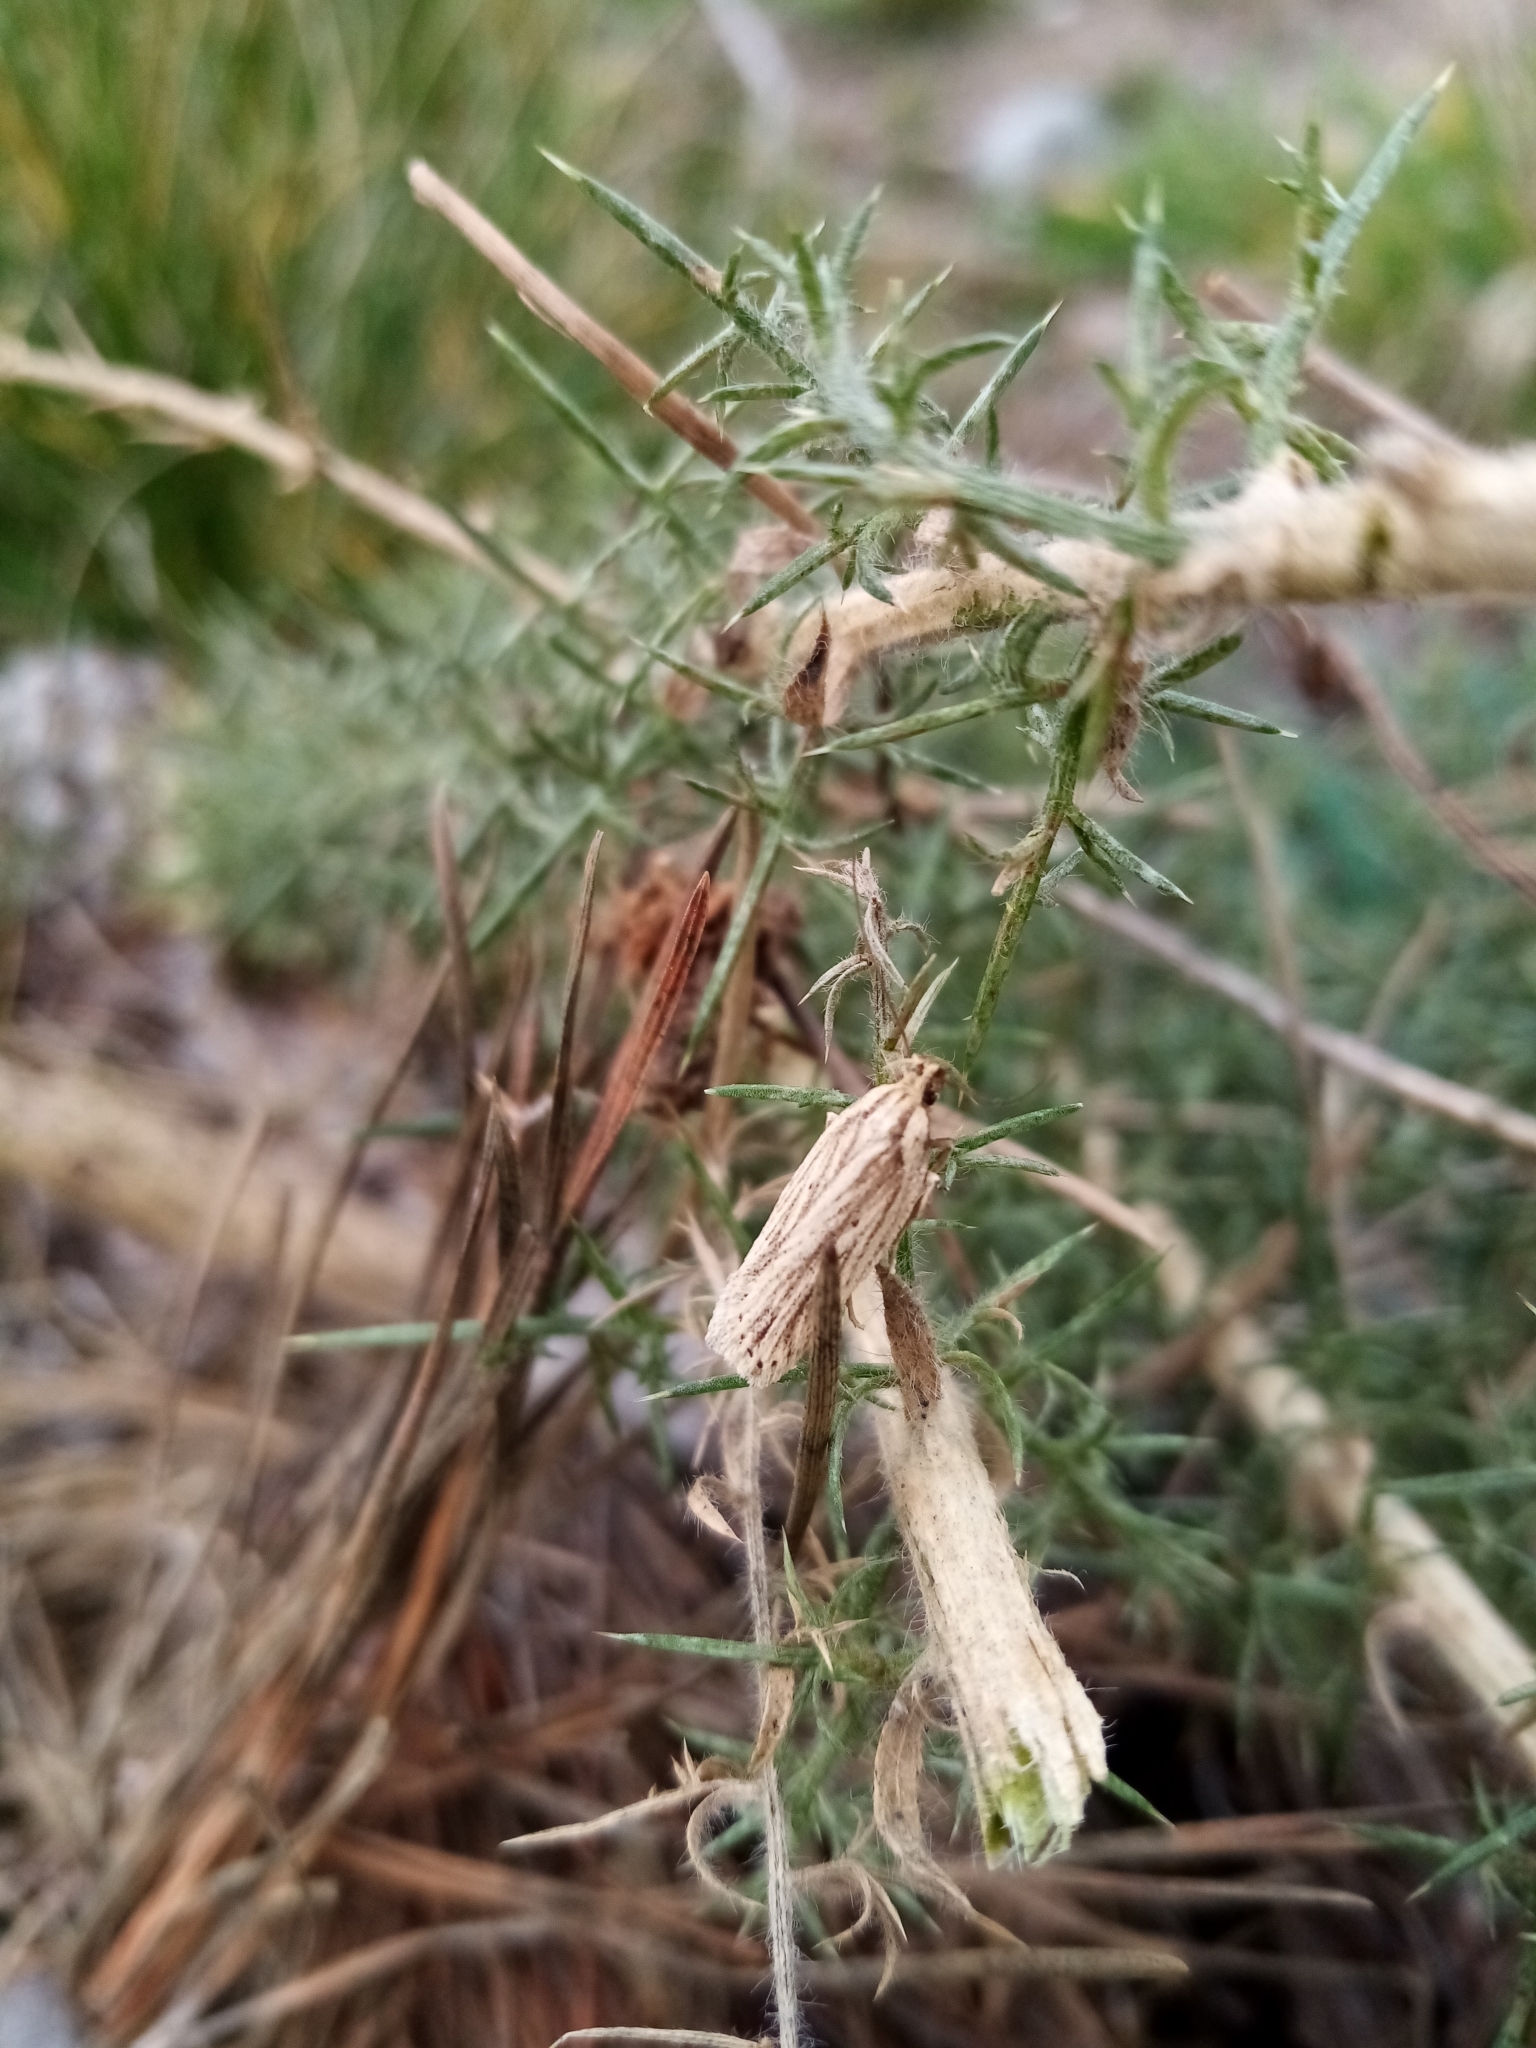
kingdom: Animalia
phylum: Arthropoda
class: Insecta
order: Lepidoptera
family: Depressariidae
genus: Agonopterix
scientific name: Agonopterix
